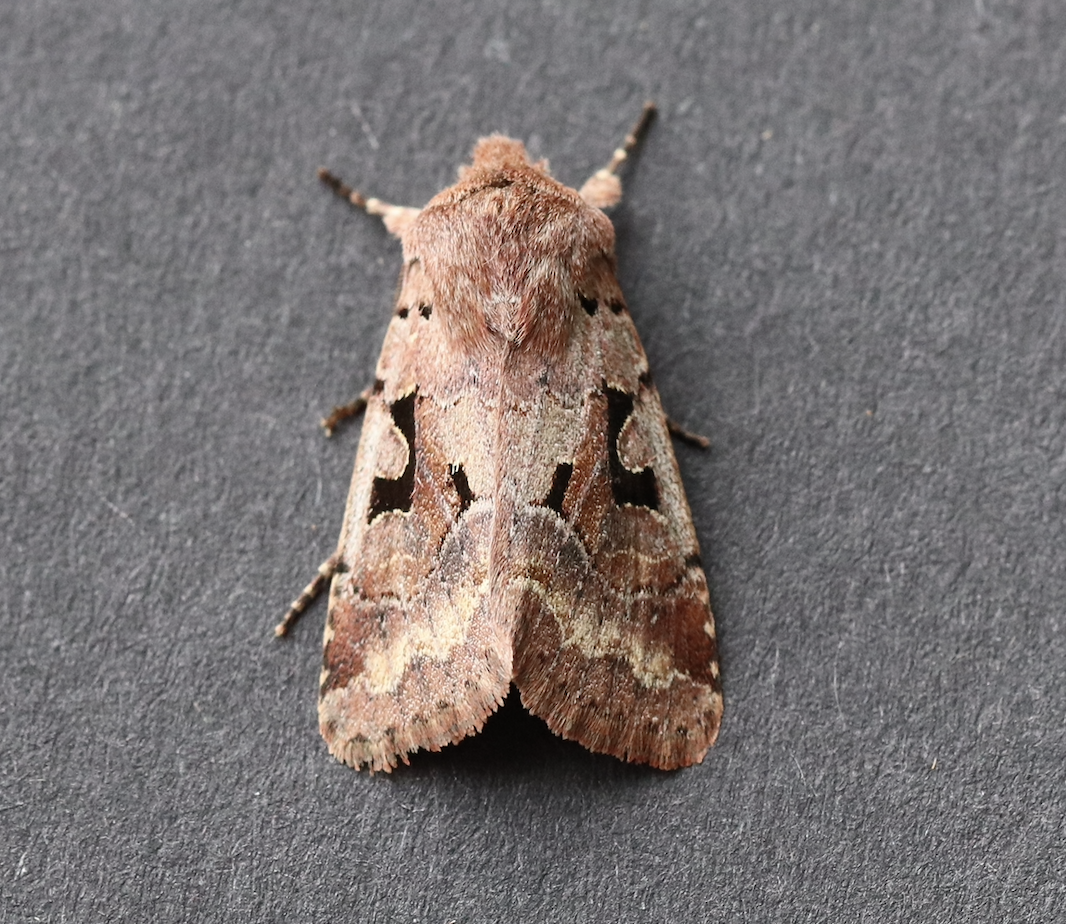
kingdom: Animalia
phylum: Arthropoda
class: Insecta
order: Lepidoptera
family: Noctuidae
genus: Orthosia
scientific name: Orthosia gothica
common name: Hebrew character
